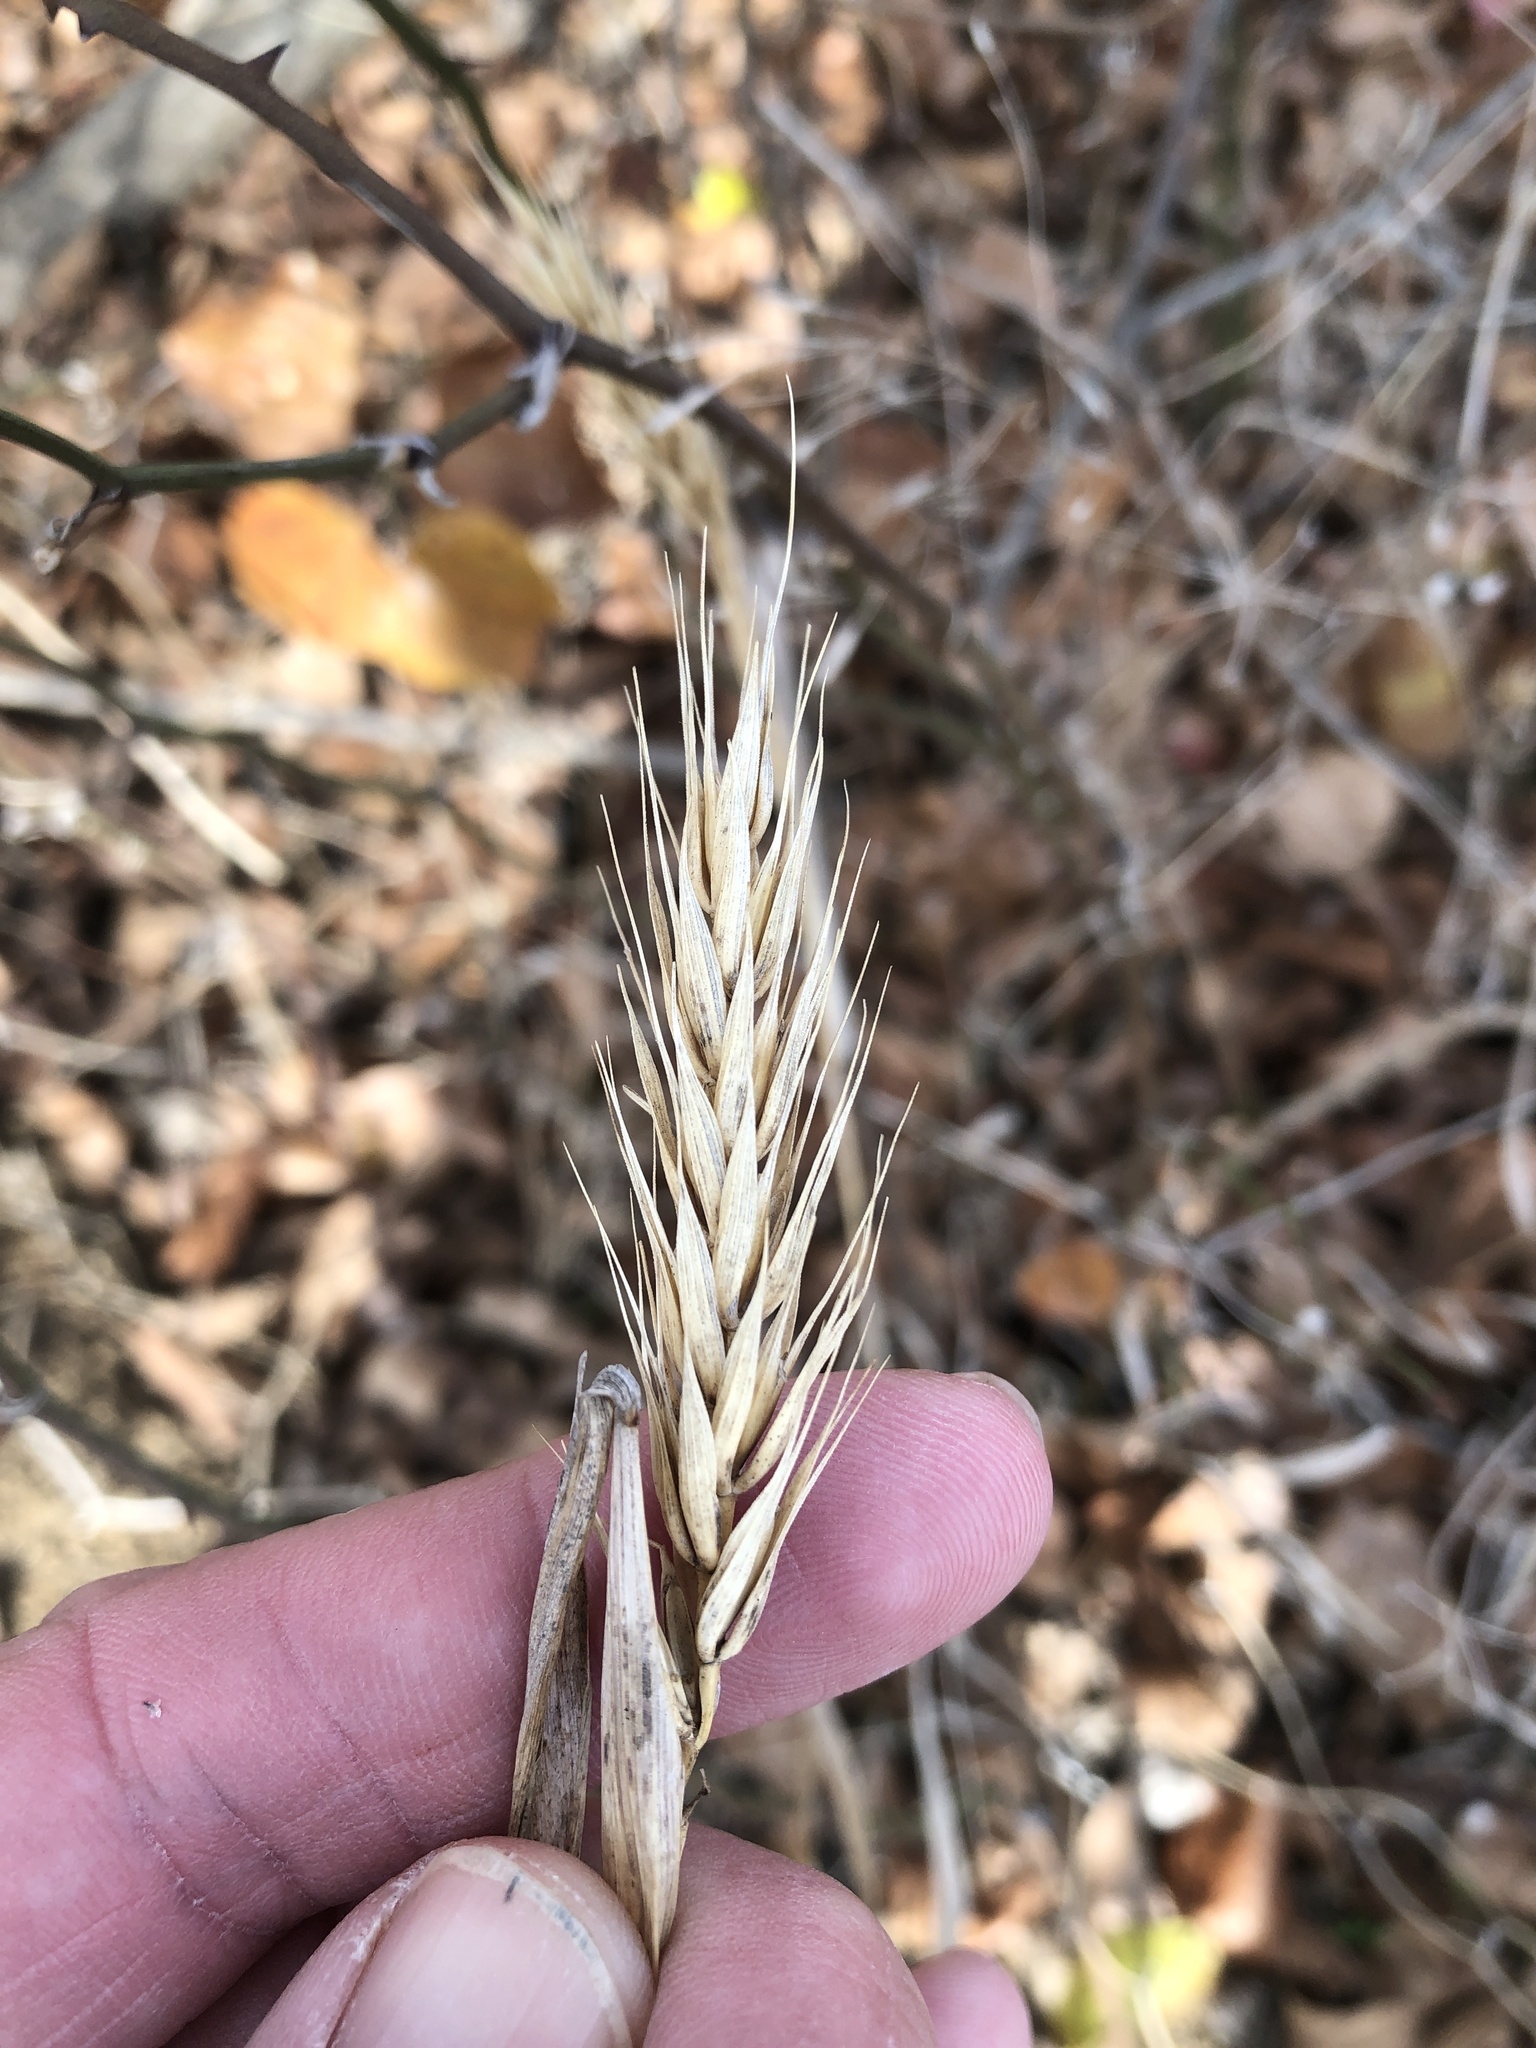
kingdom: Plantae
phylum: Tracheophyta
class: Liliopsida
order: Poales
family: Poaceae
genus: Elymus
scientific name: Elymus virginicus
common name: Common eastern wildrye
